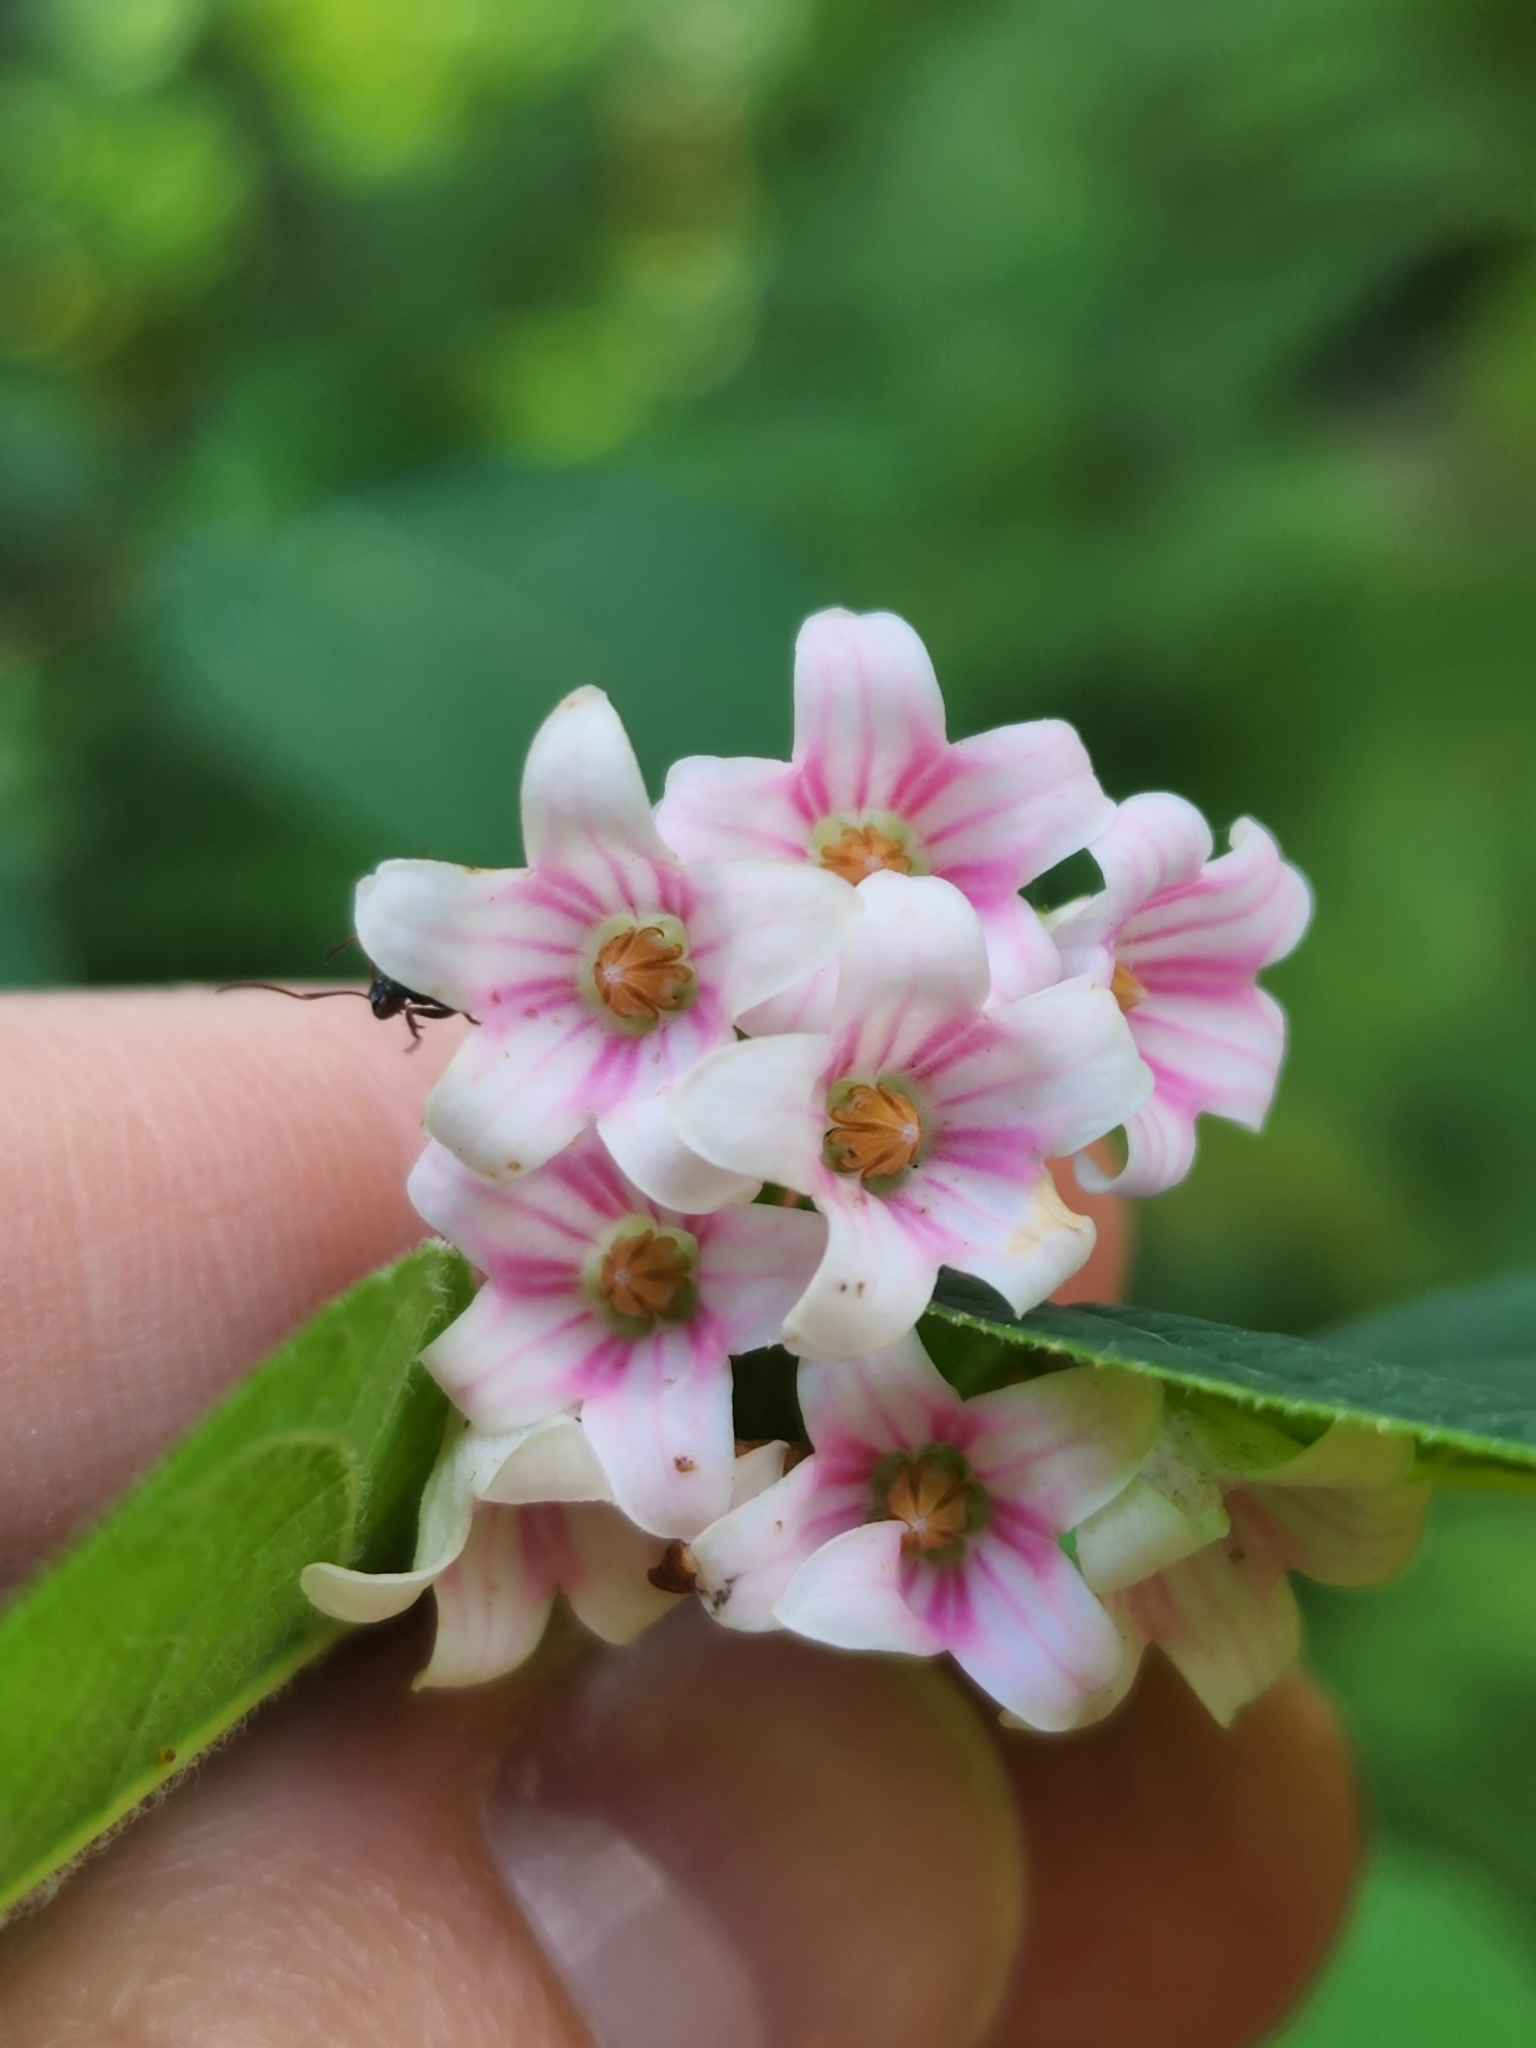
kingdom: Plantae
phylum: Tracheophyta
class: Magnoliopsida
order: Gentianales
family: Apocynaceae
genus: Apocynum
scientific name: Apocynum androsaemifolium
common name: Spreading dogbane
